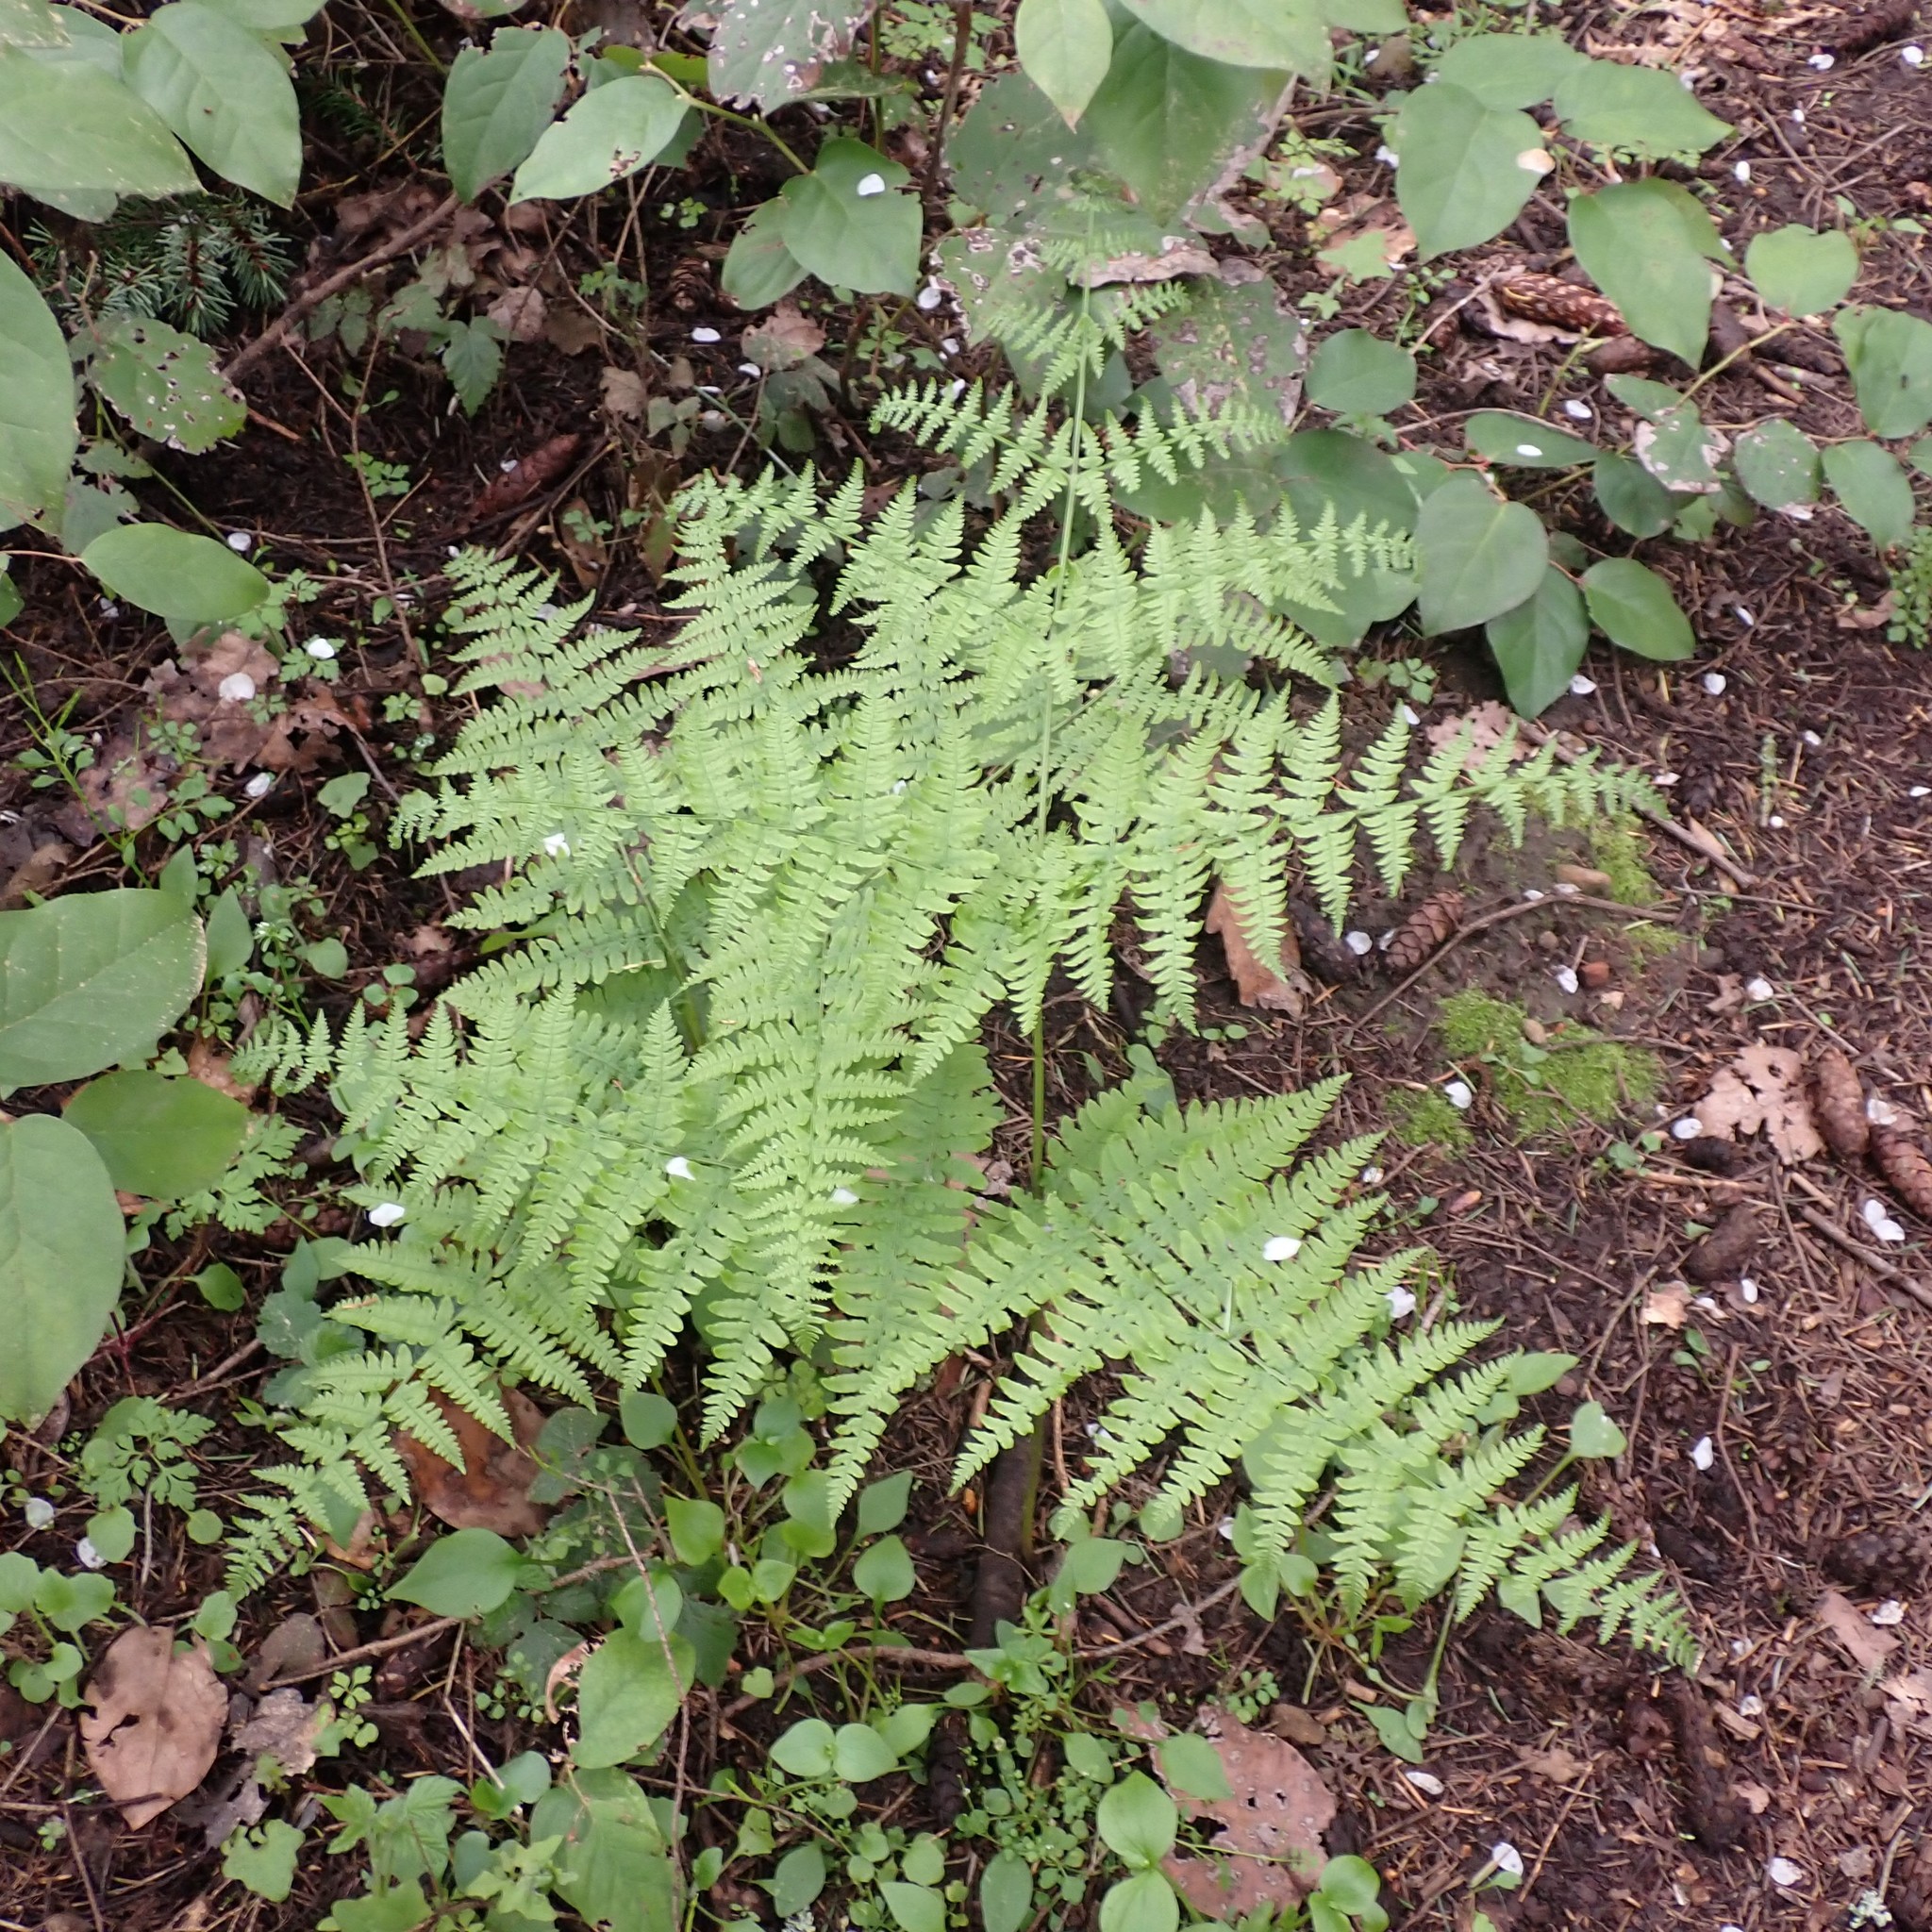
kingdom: Plantae
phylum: Tracheophyta
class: Polypodiopsida
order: Polypodiales
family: Dennstaedtiaceae
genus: Pteridium
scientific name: Pteridium aquilinum
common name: Bracken
